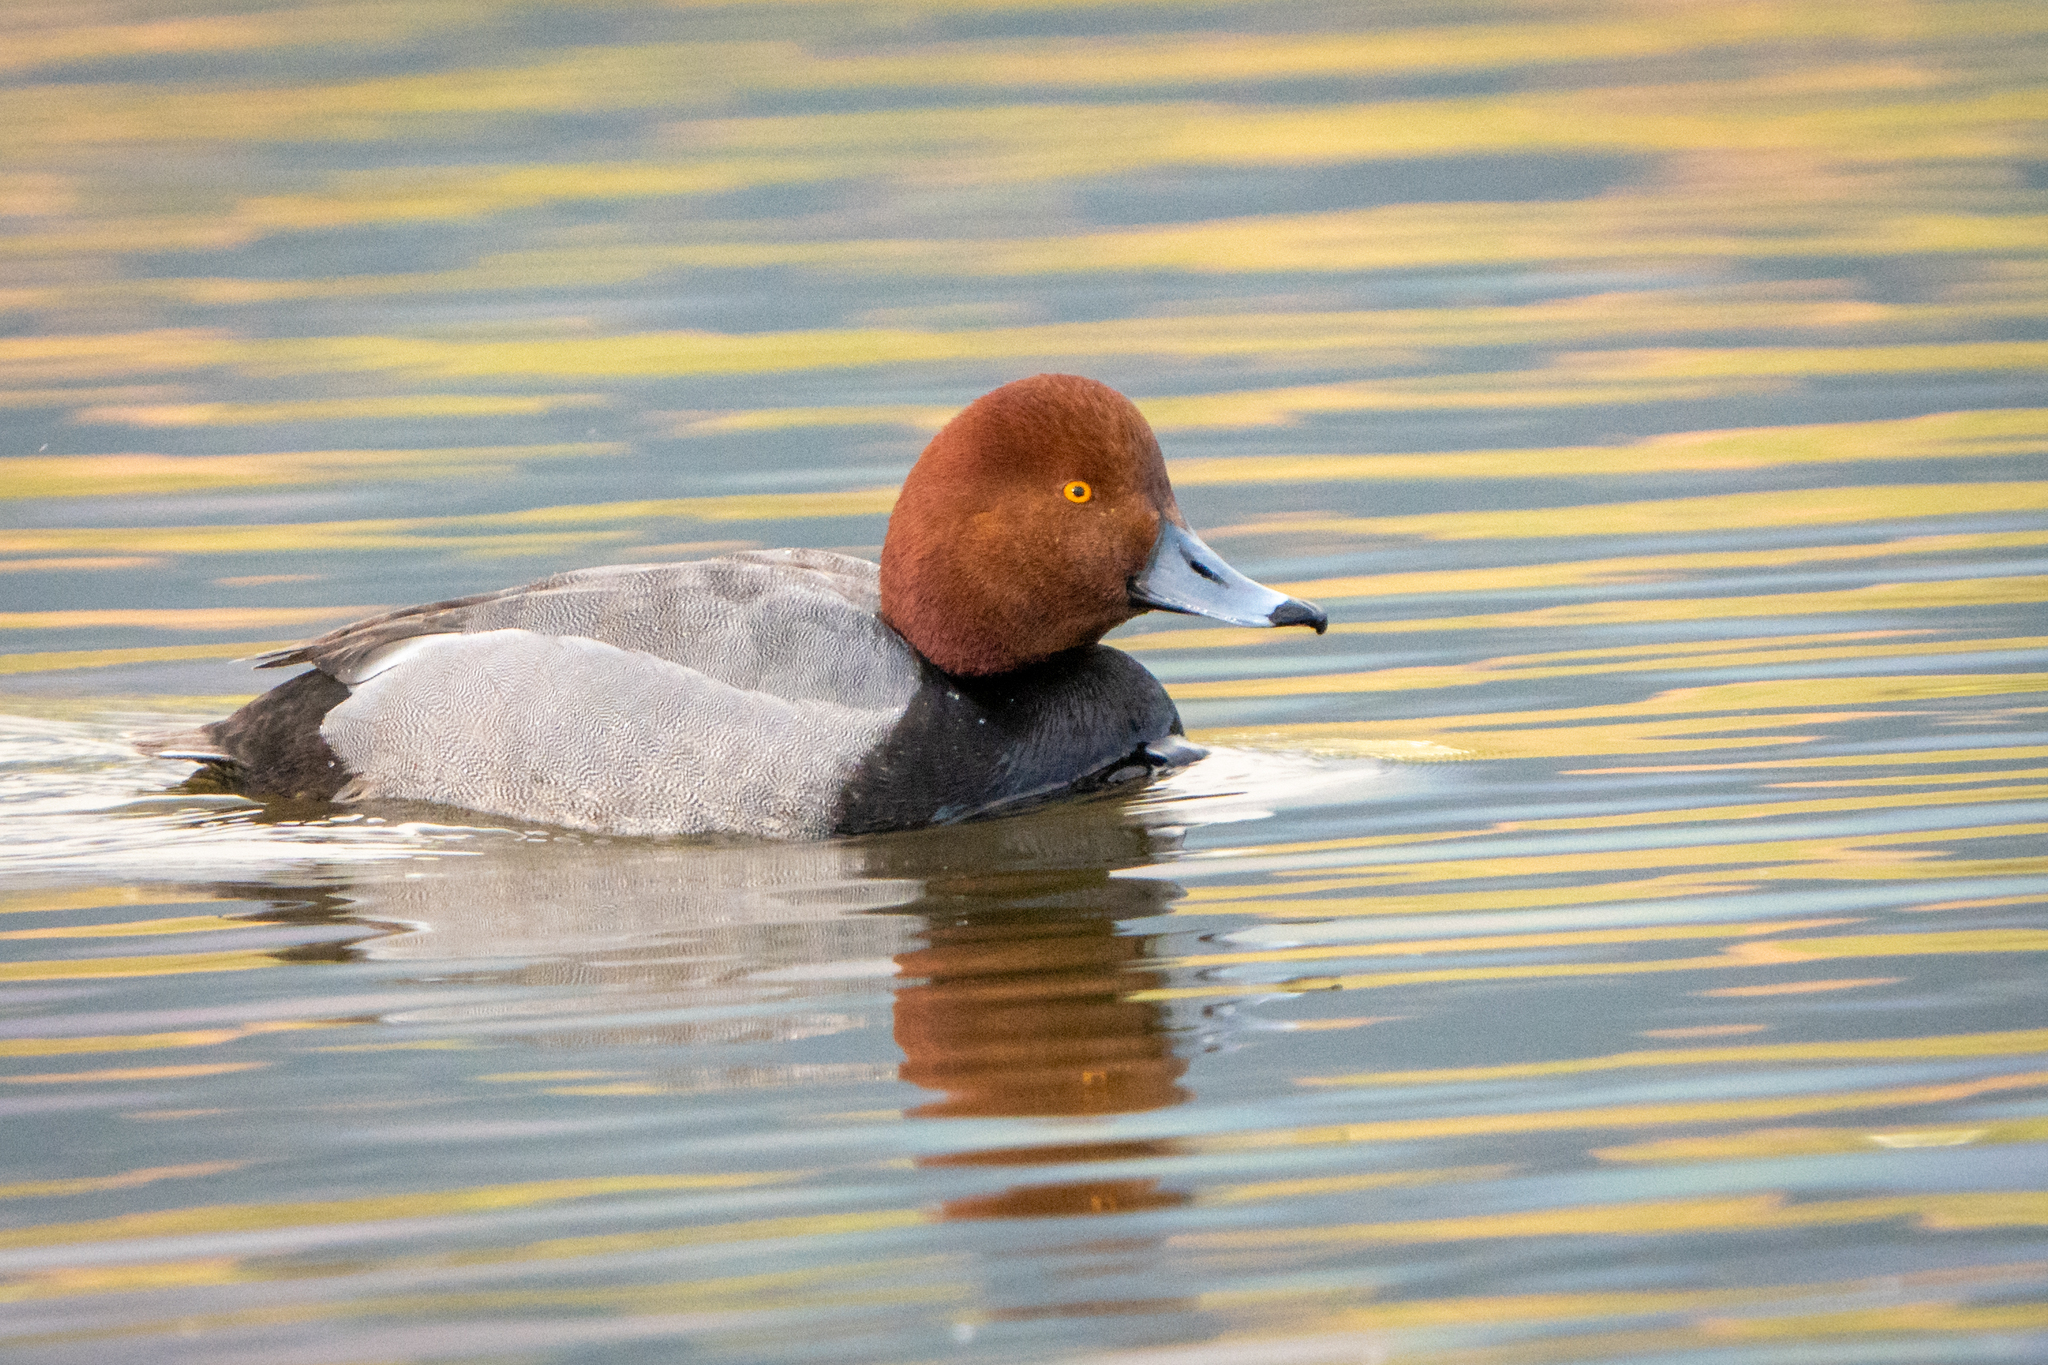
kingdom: Animalia
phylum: Chordata
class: Aves
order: Anseriformes
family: Anatidae
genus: Aythya
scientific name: Aythya americana
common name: Redhead
